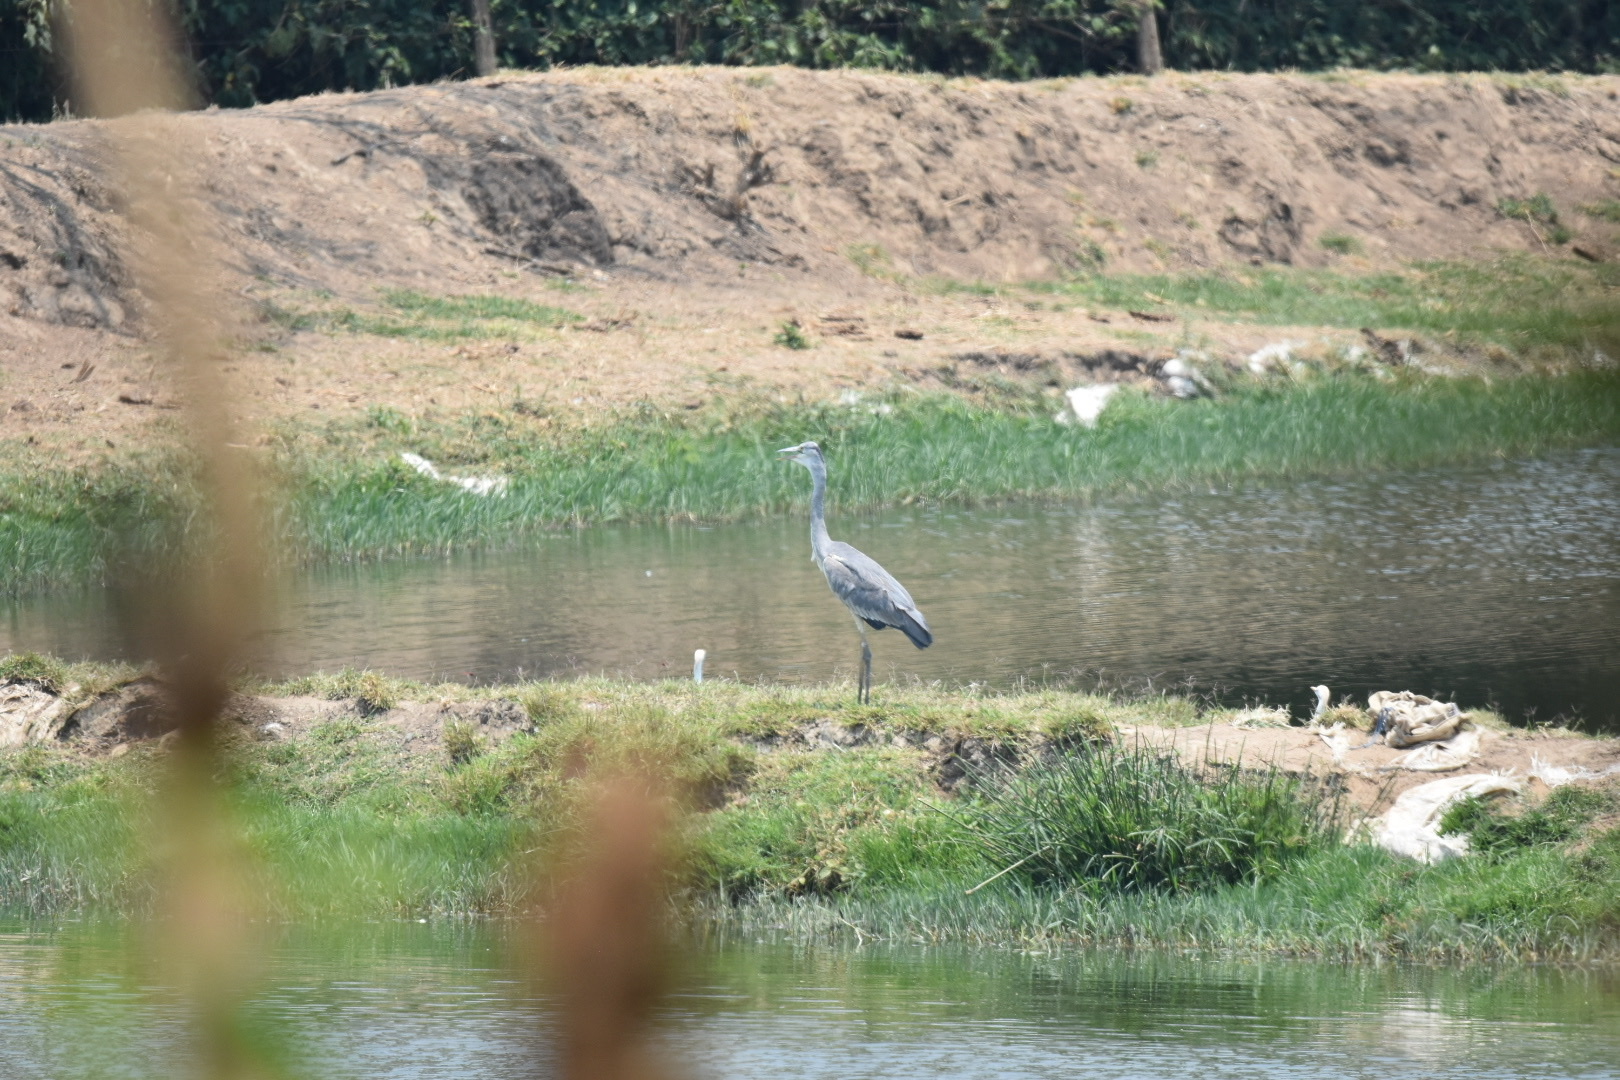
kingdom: Animalia
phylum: Chordata
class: Aves
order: Pelecaniformes
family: Ardeidae
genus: Ardea
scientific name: Ardea cinerea
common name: Grey heron
